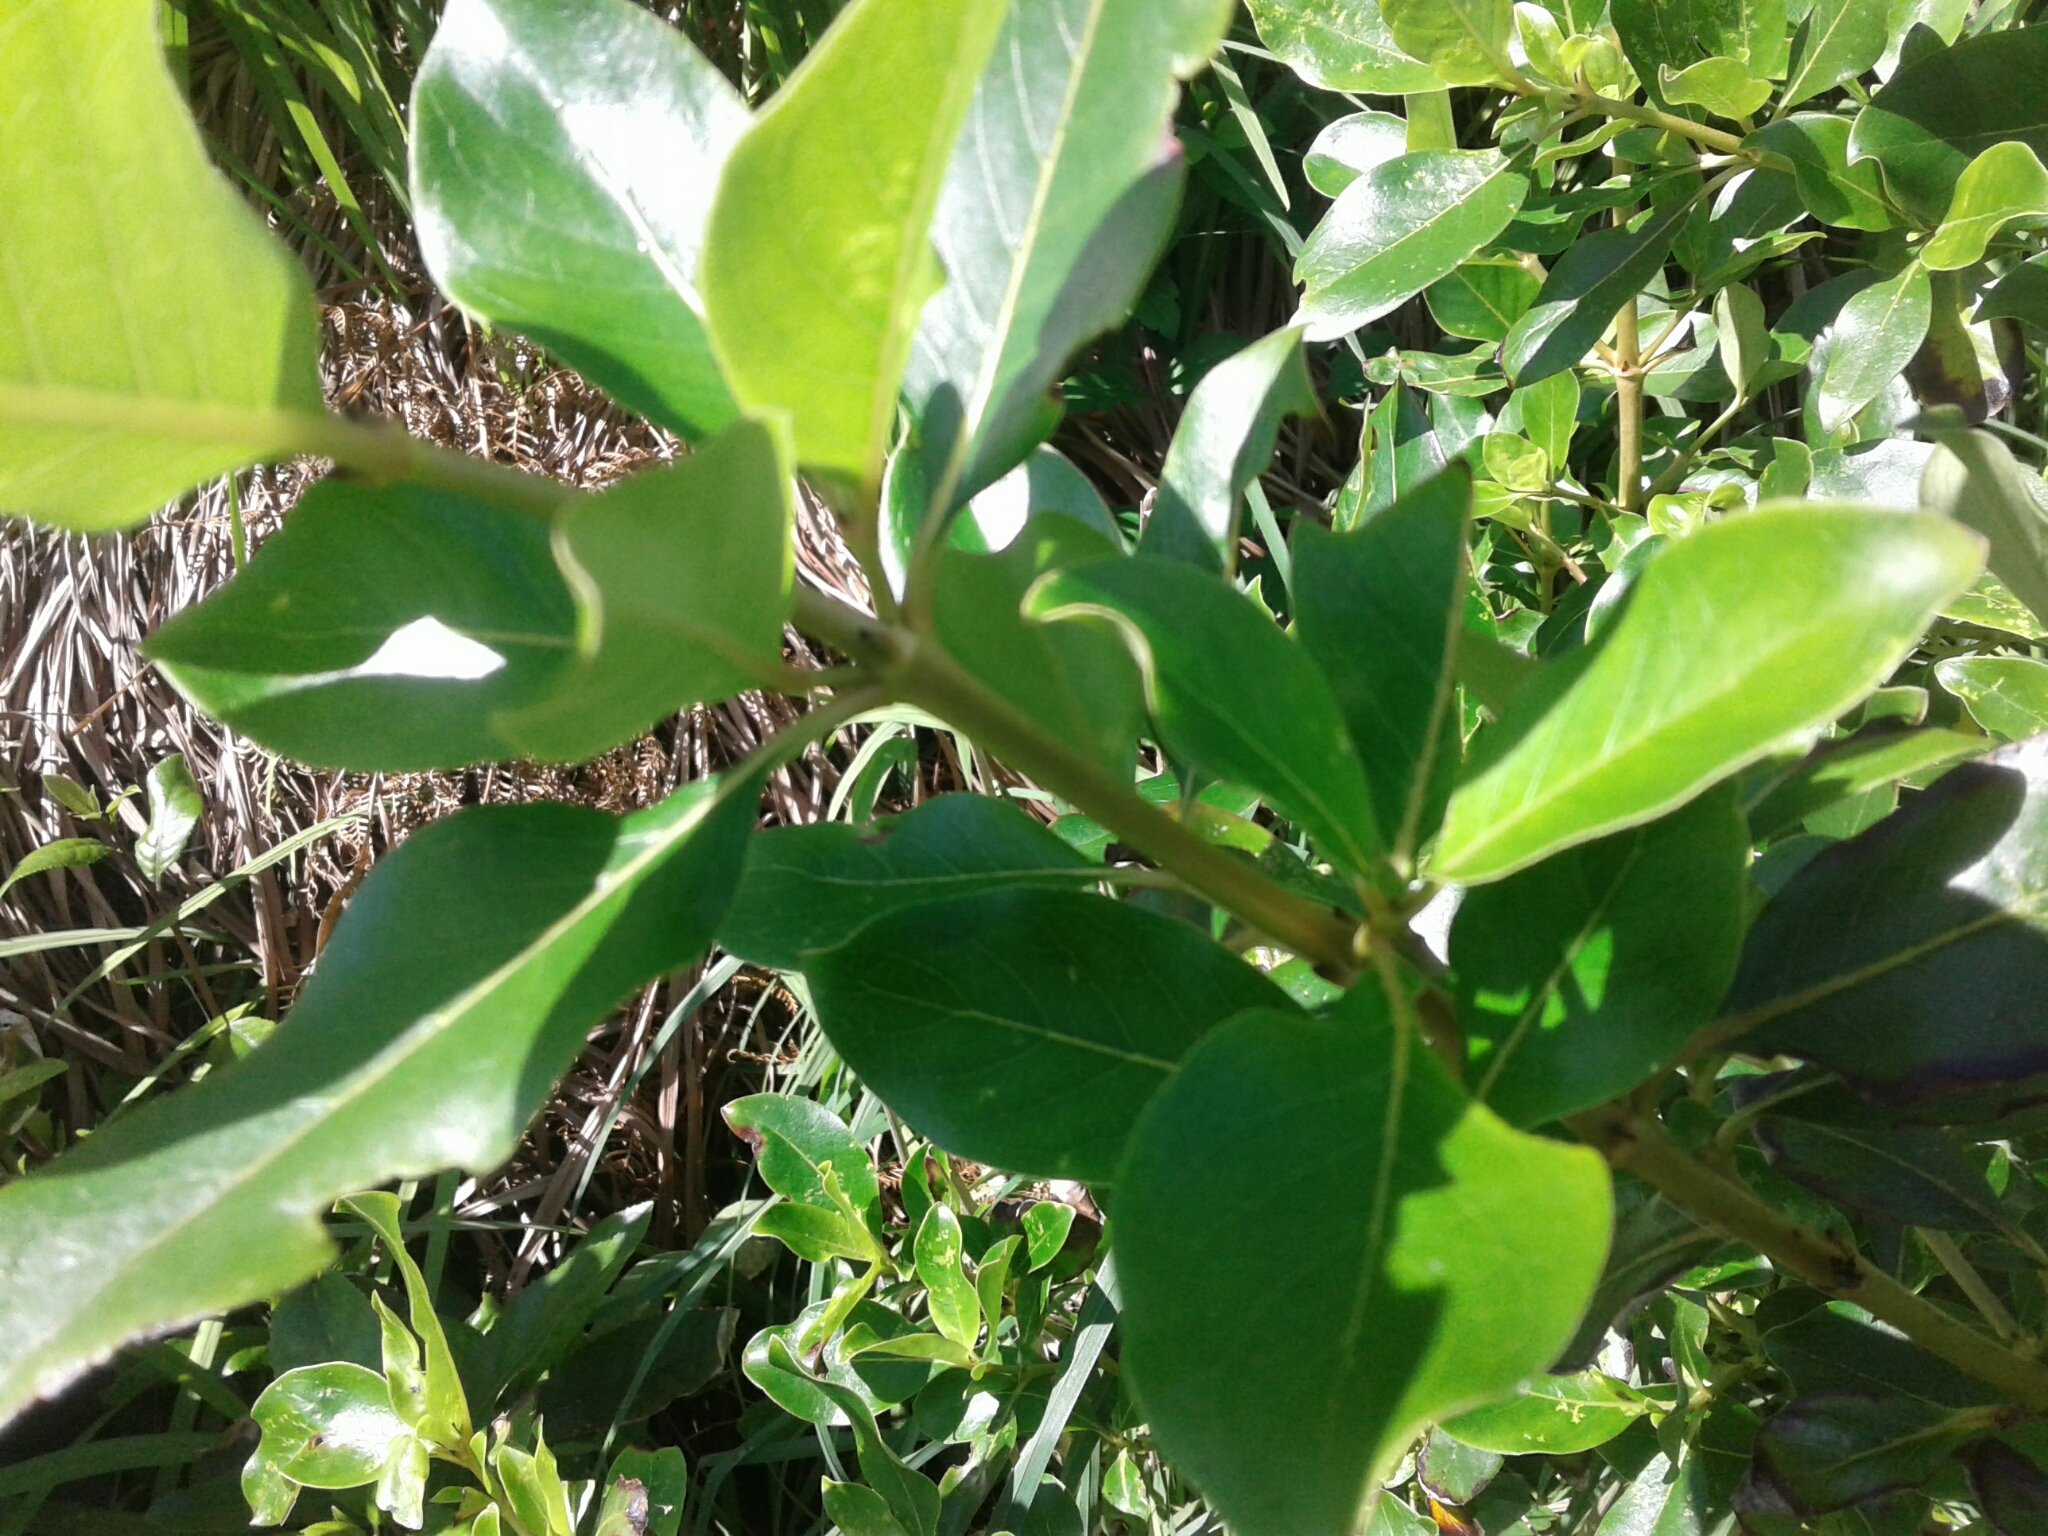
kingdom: Plantae
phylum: Tracheophyta
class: Magnoliopsida
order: Gentianales
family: Rubiaceae
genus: Coprosma
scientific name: Coprosma robusta
